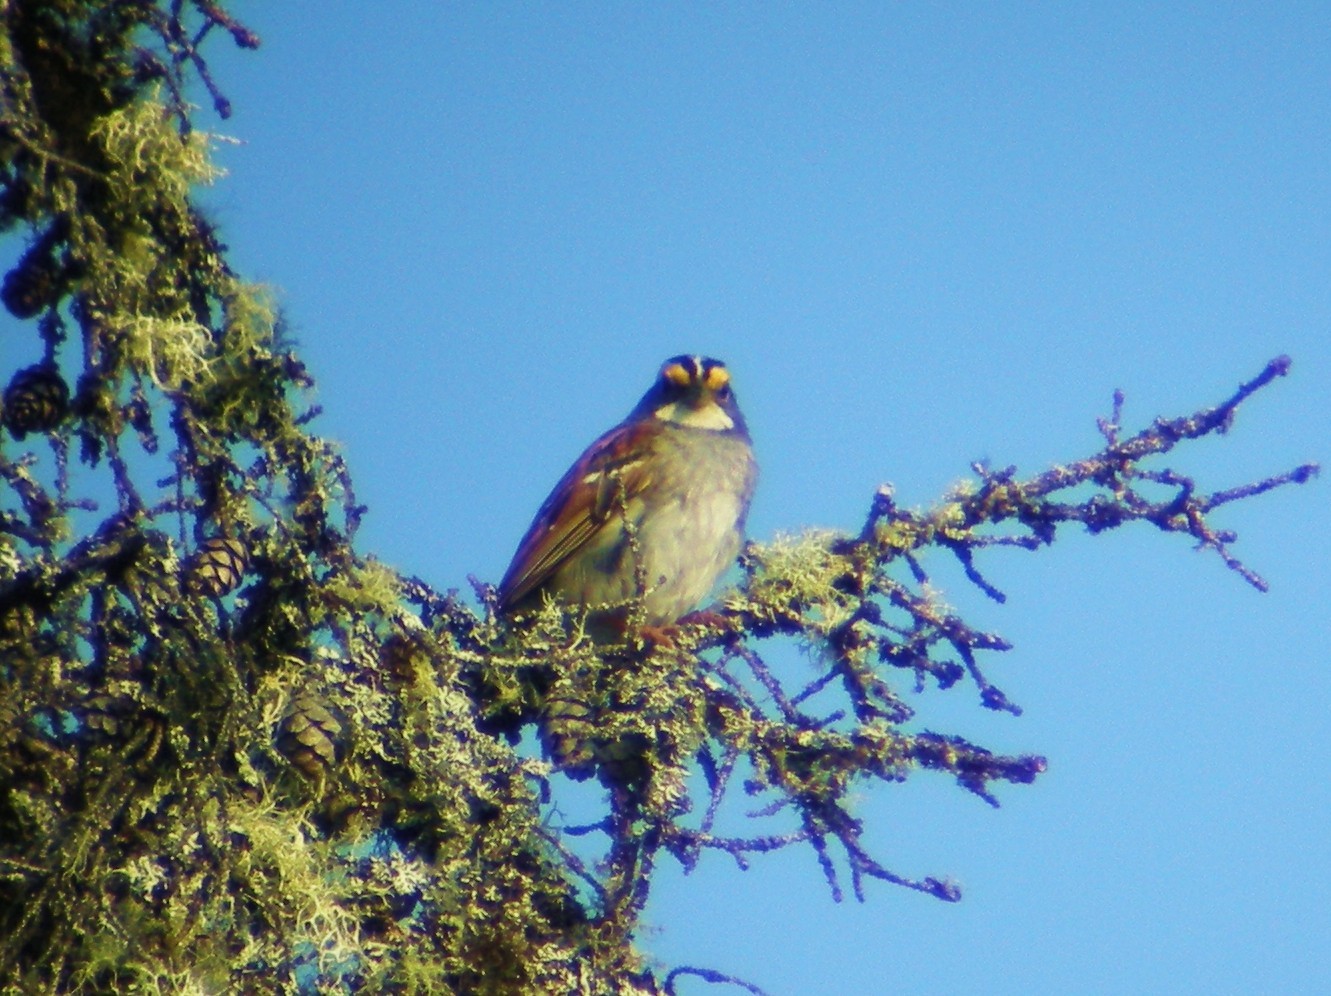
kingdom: Animalia
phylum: Chordata
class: Aves
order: Passeriformes
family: Passerellidae
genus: Zonotrichia
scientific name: Zonotrichia albicollis
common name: White-throated sparrow
